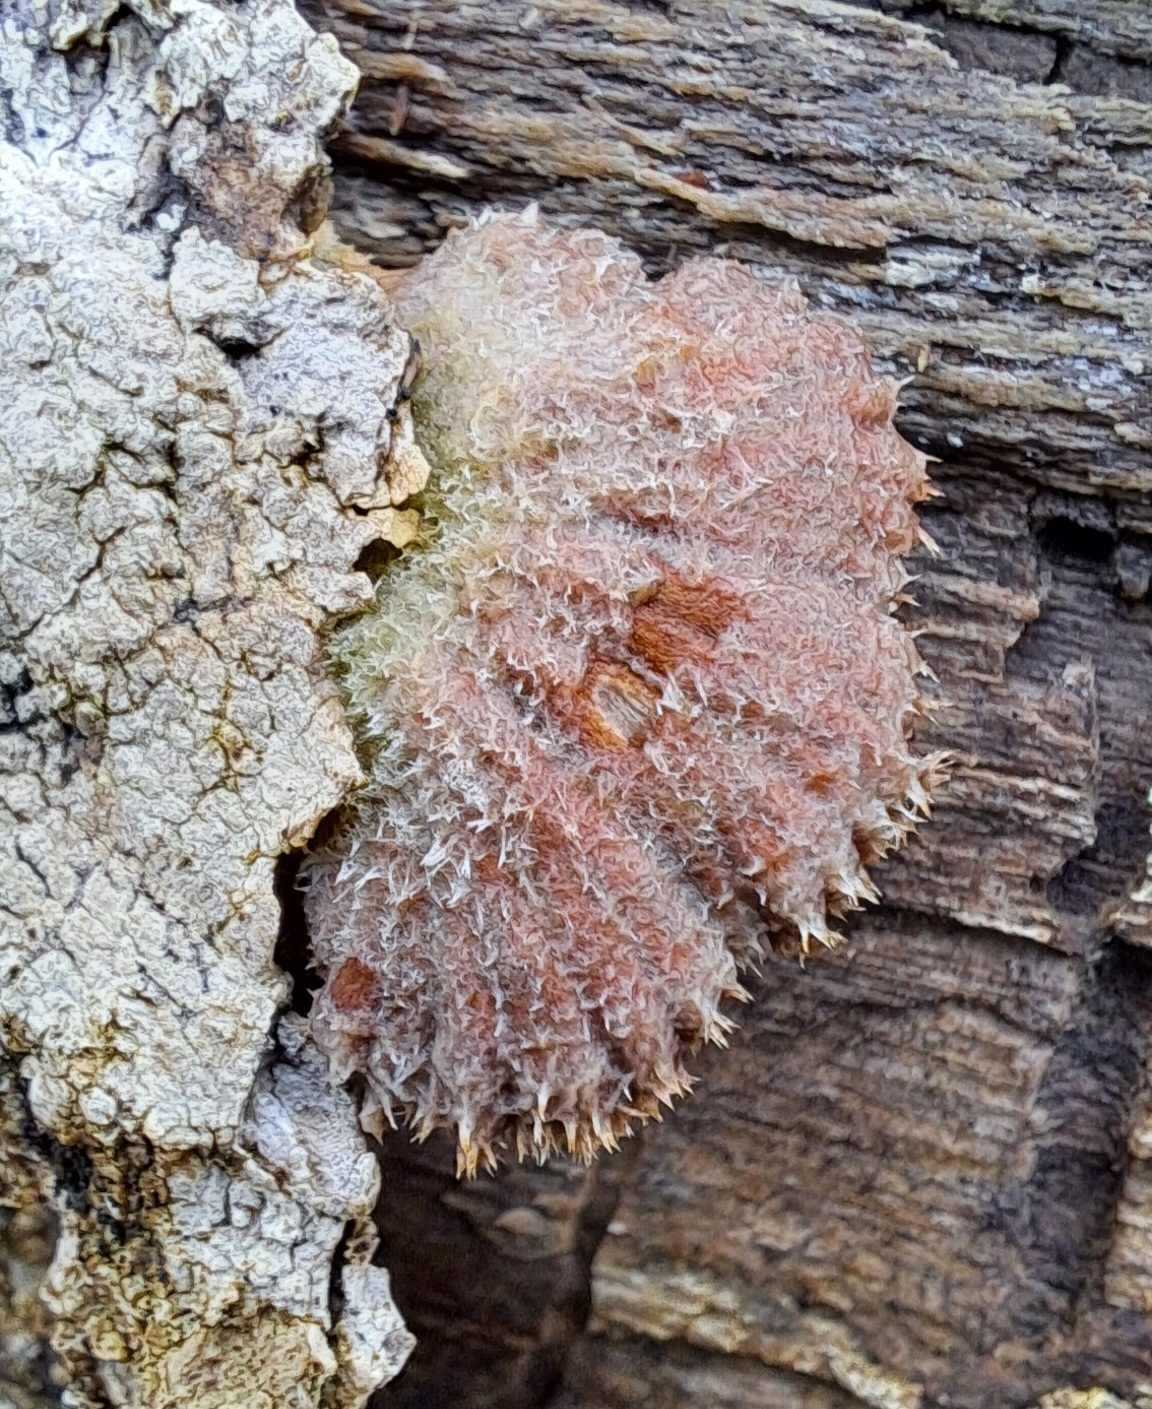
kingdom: Fungi
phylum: Basidiomycota
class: Agaricomycetes
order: Agaricales
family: Schizophyllaceae
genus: Schizophyllum
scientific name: Schizophyllum commune
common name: Common porecrust
